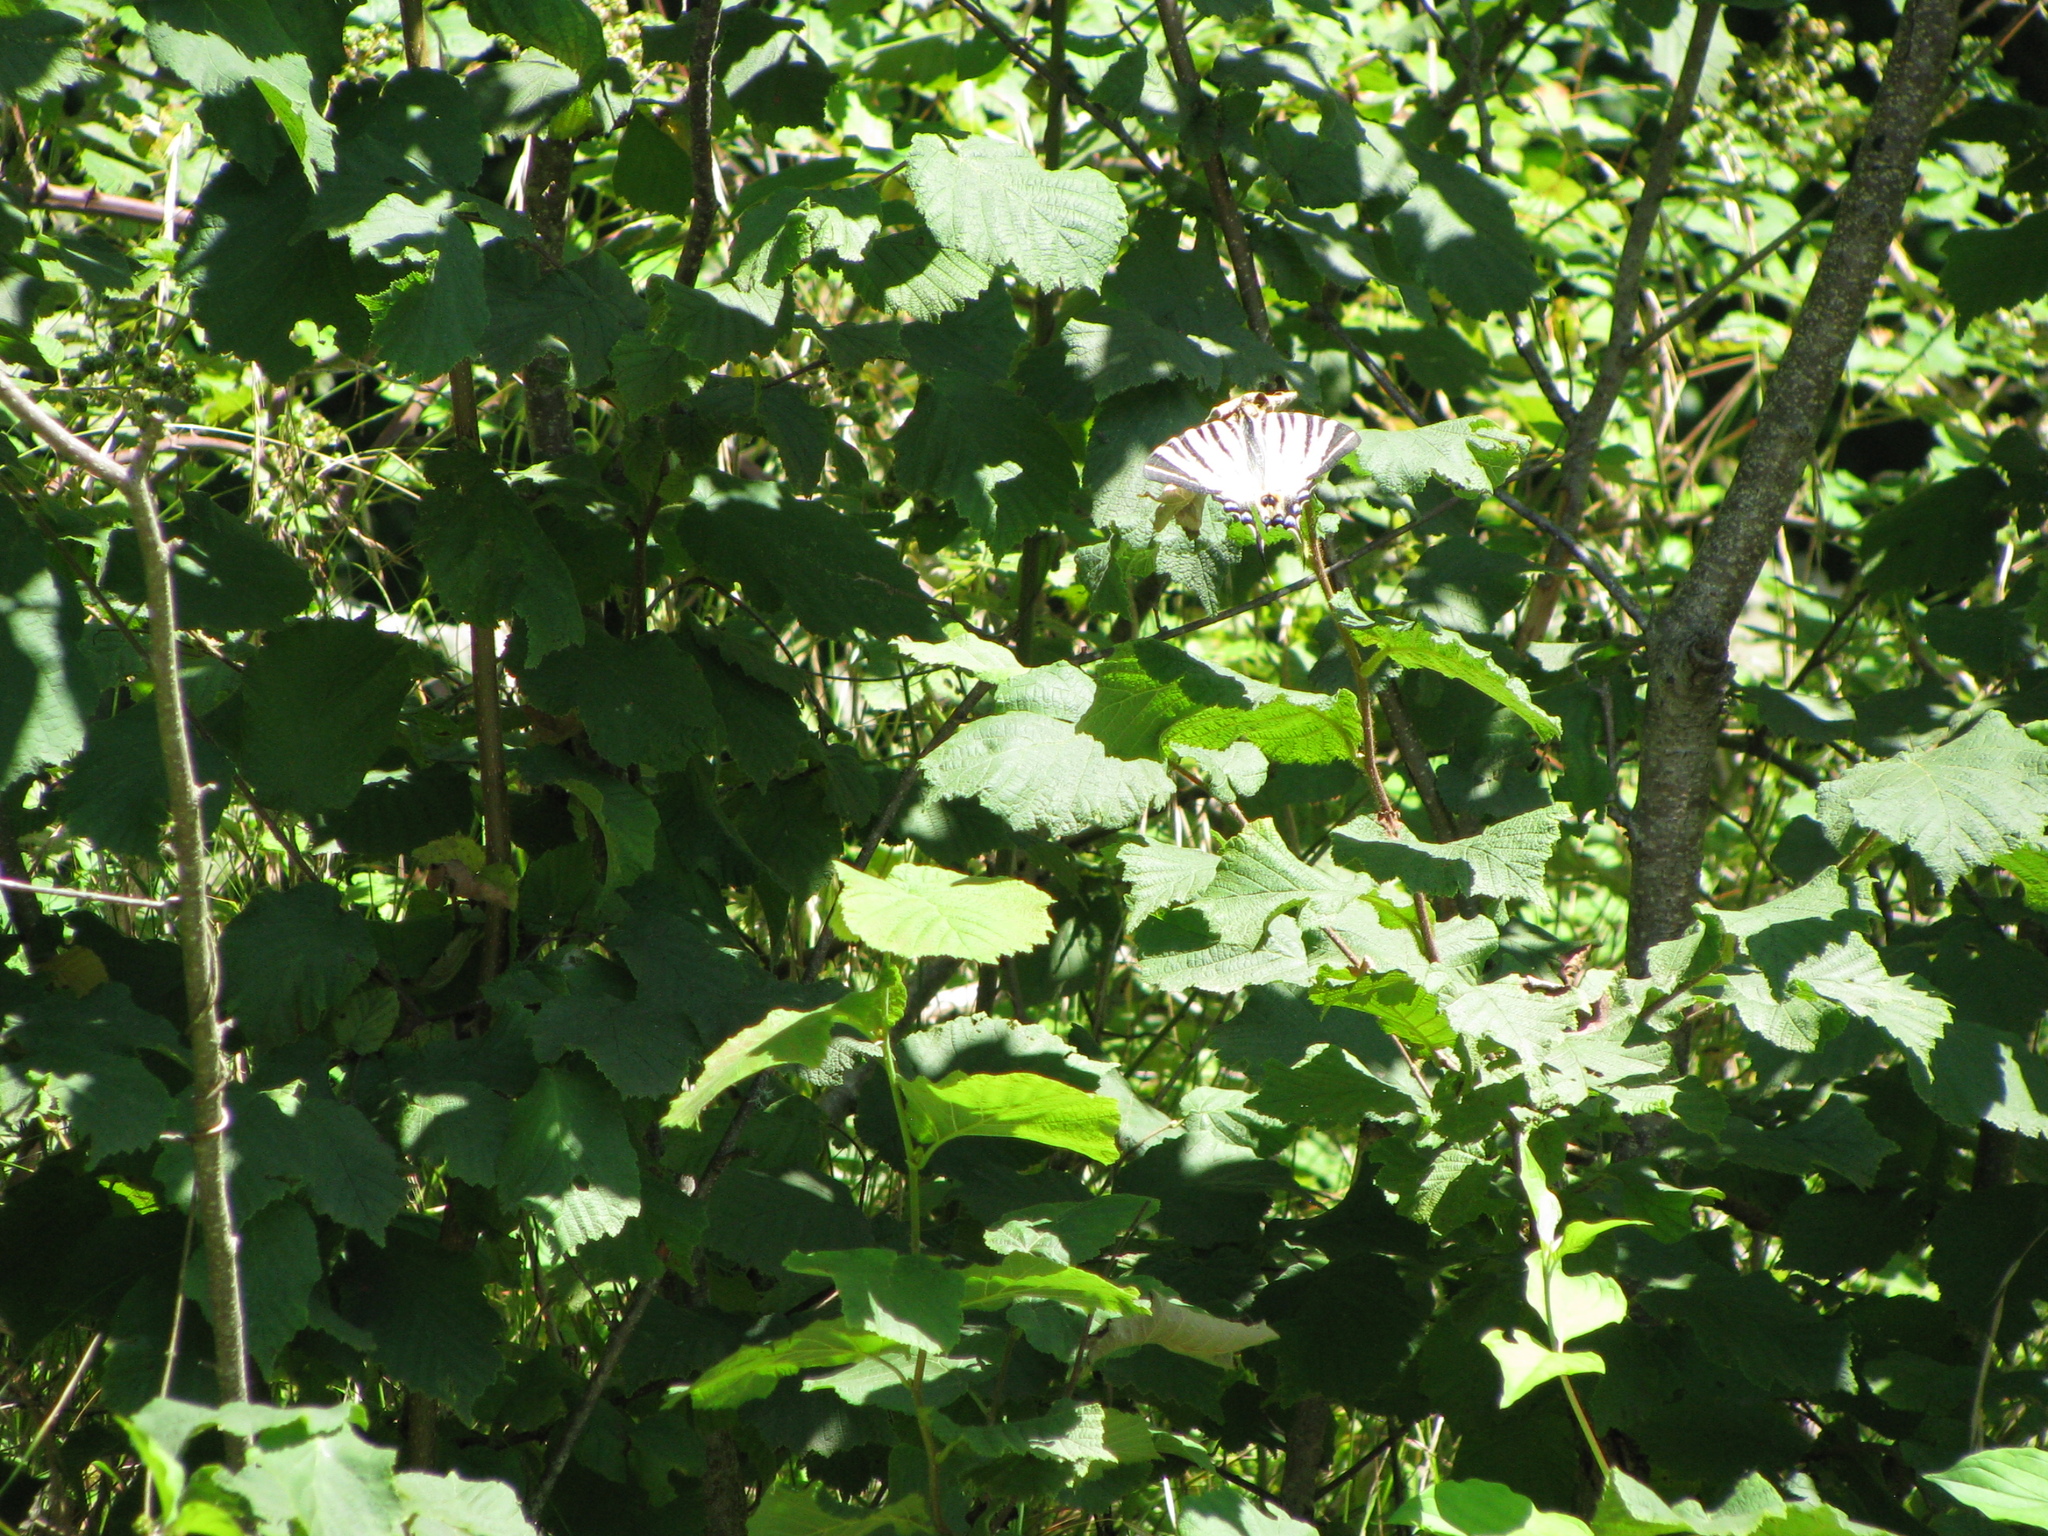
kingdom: Animalia
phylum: Arthropoda
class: Insecta
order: Lepidoptera
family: Papilionidae
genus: Iphiclides
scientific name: Iphiclides podalirius
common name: Scarce swallowtail
